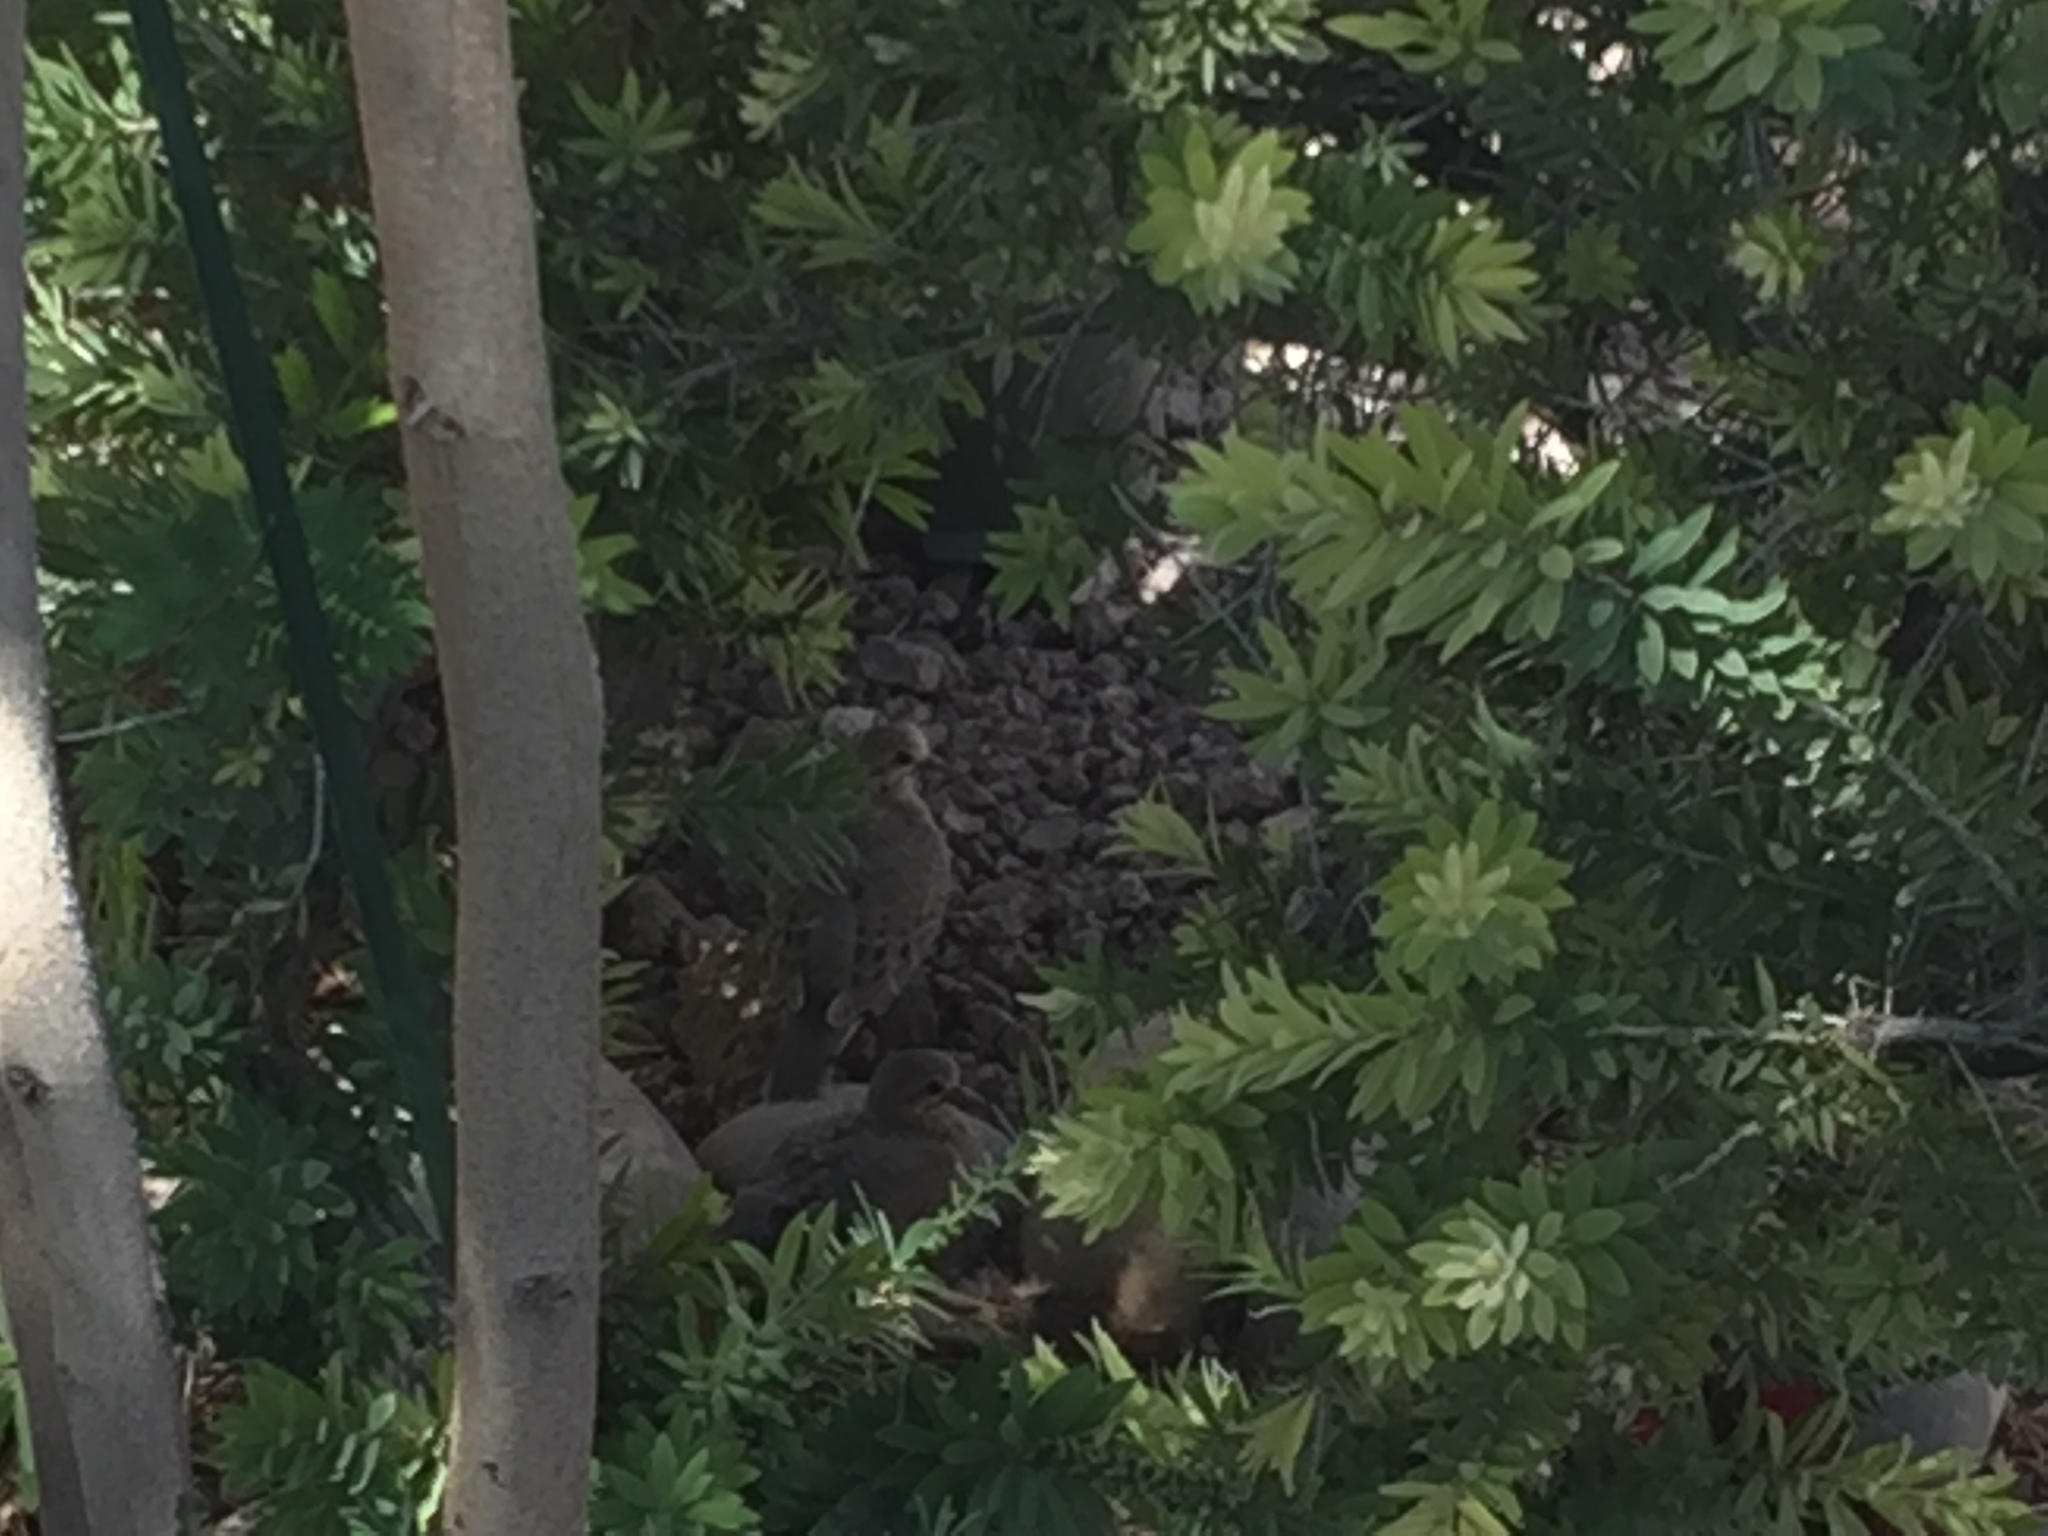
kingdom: Animalia
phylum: Chordata
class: Aves
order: Columbiformes
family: Columbidae
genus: Zenaida
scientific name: Zenaida macroura
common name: Mourning dove
